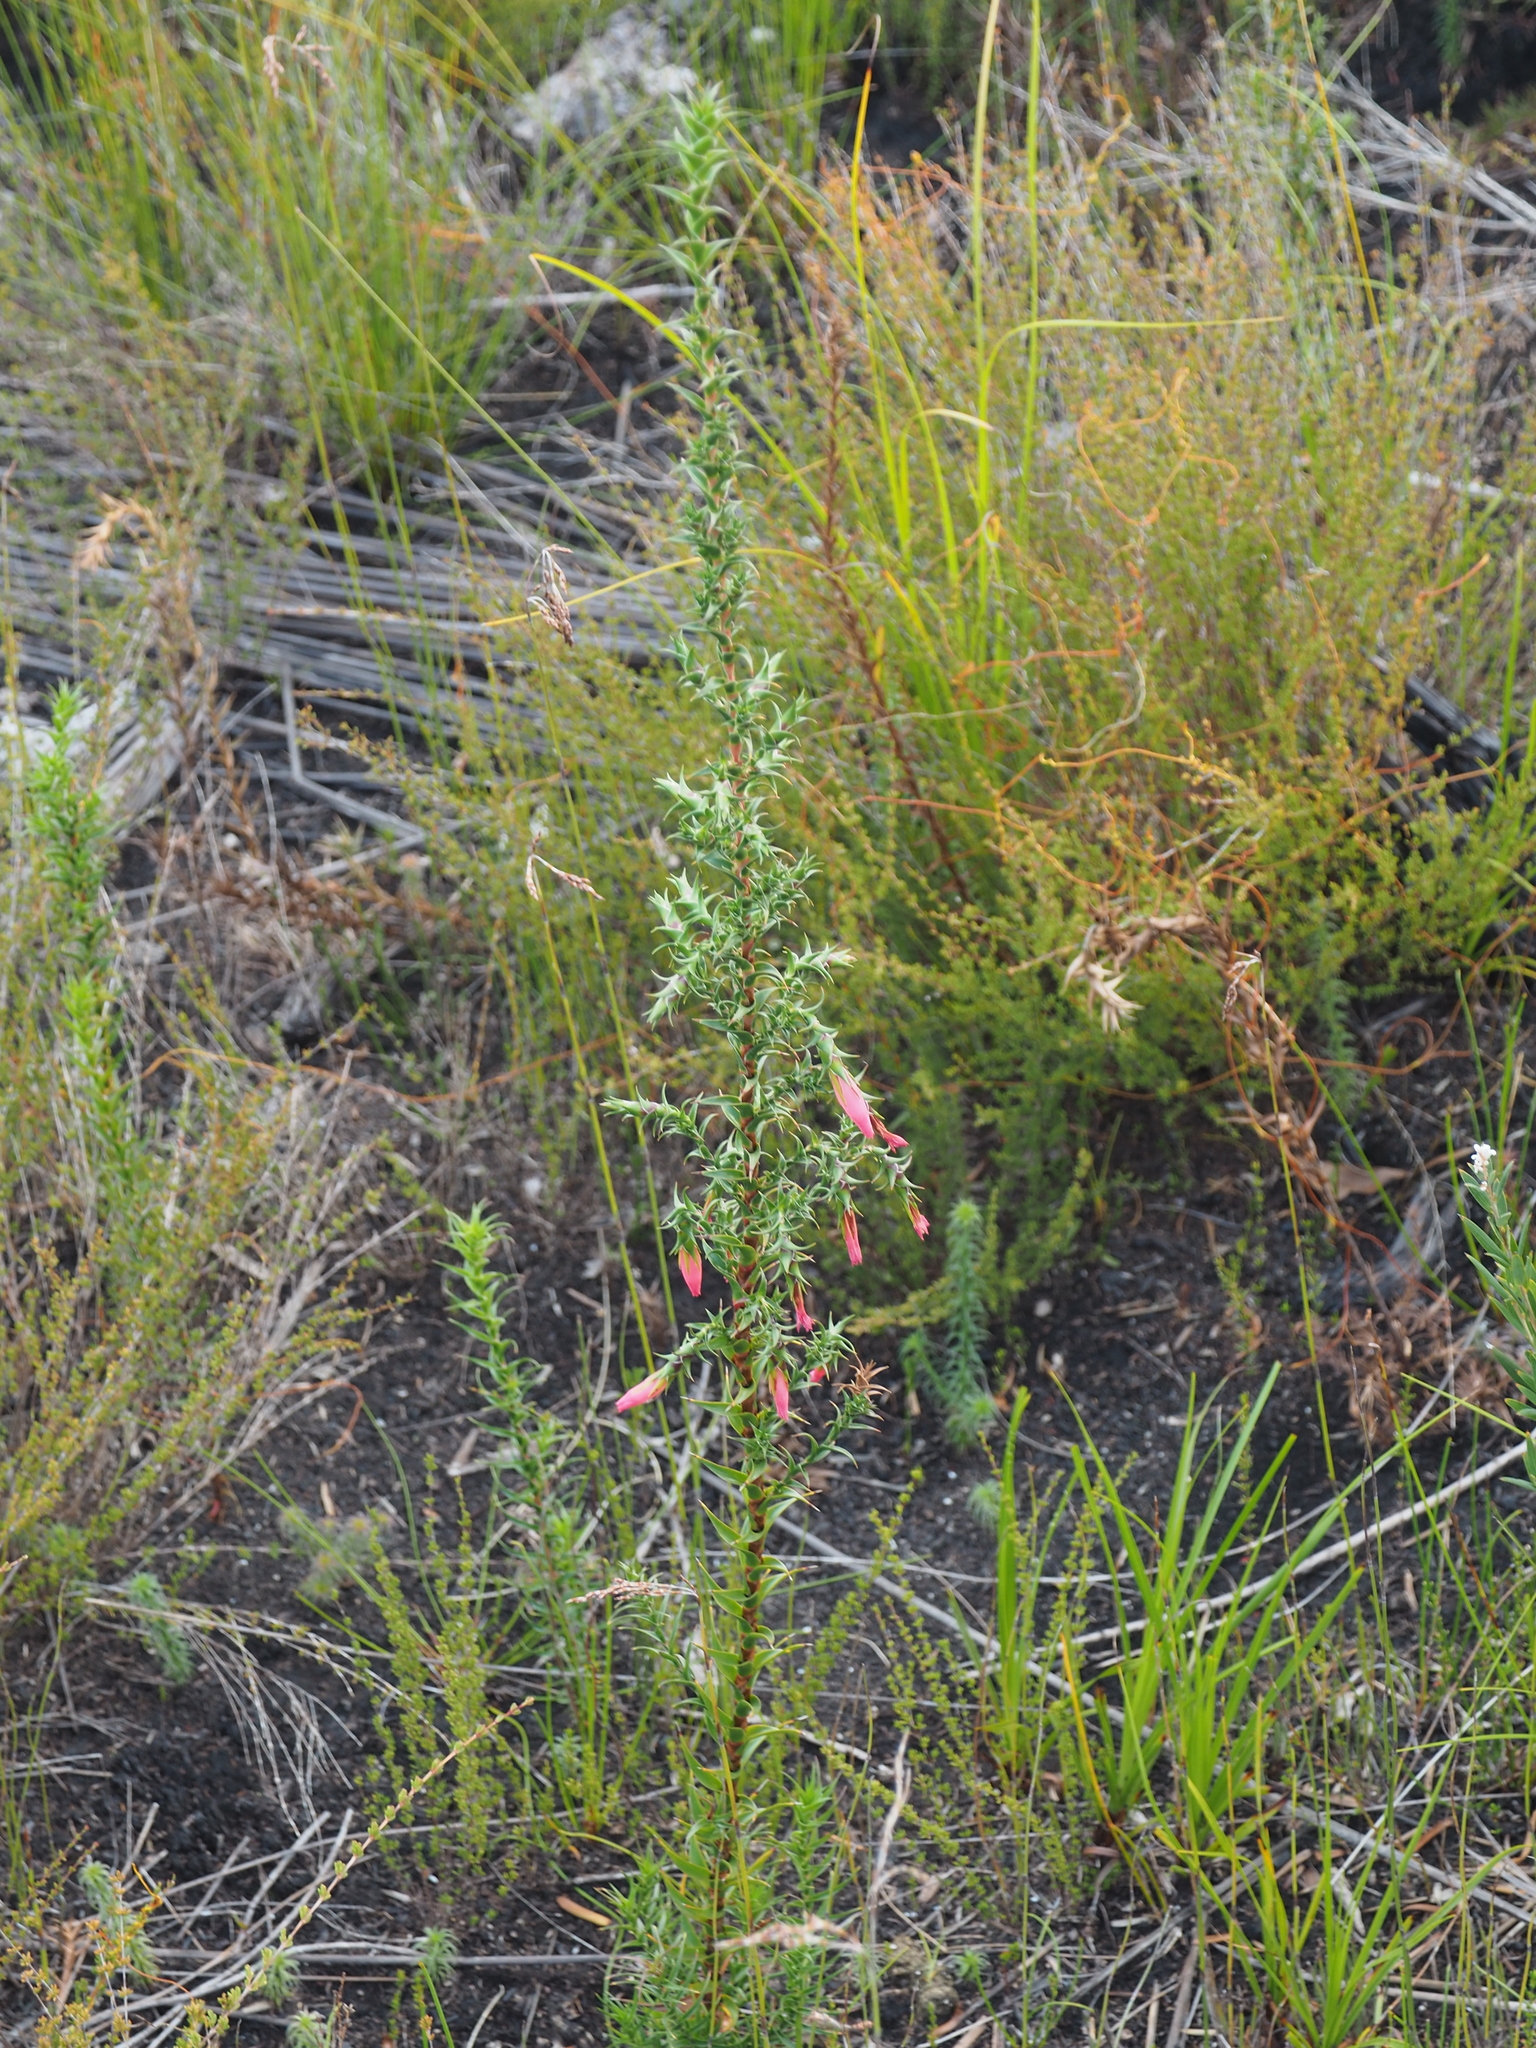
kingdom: Plantae
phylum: Tracheophyta
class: Magnoliopsida
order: Ericales
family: Ericaceae
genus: Cosmelia
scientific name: Cosmelia rubra
